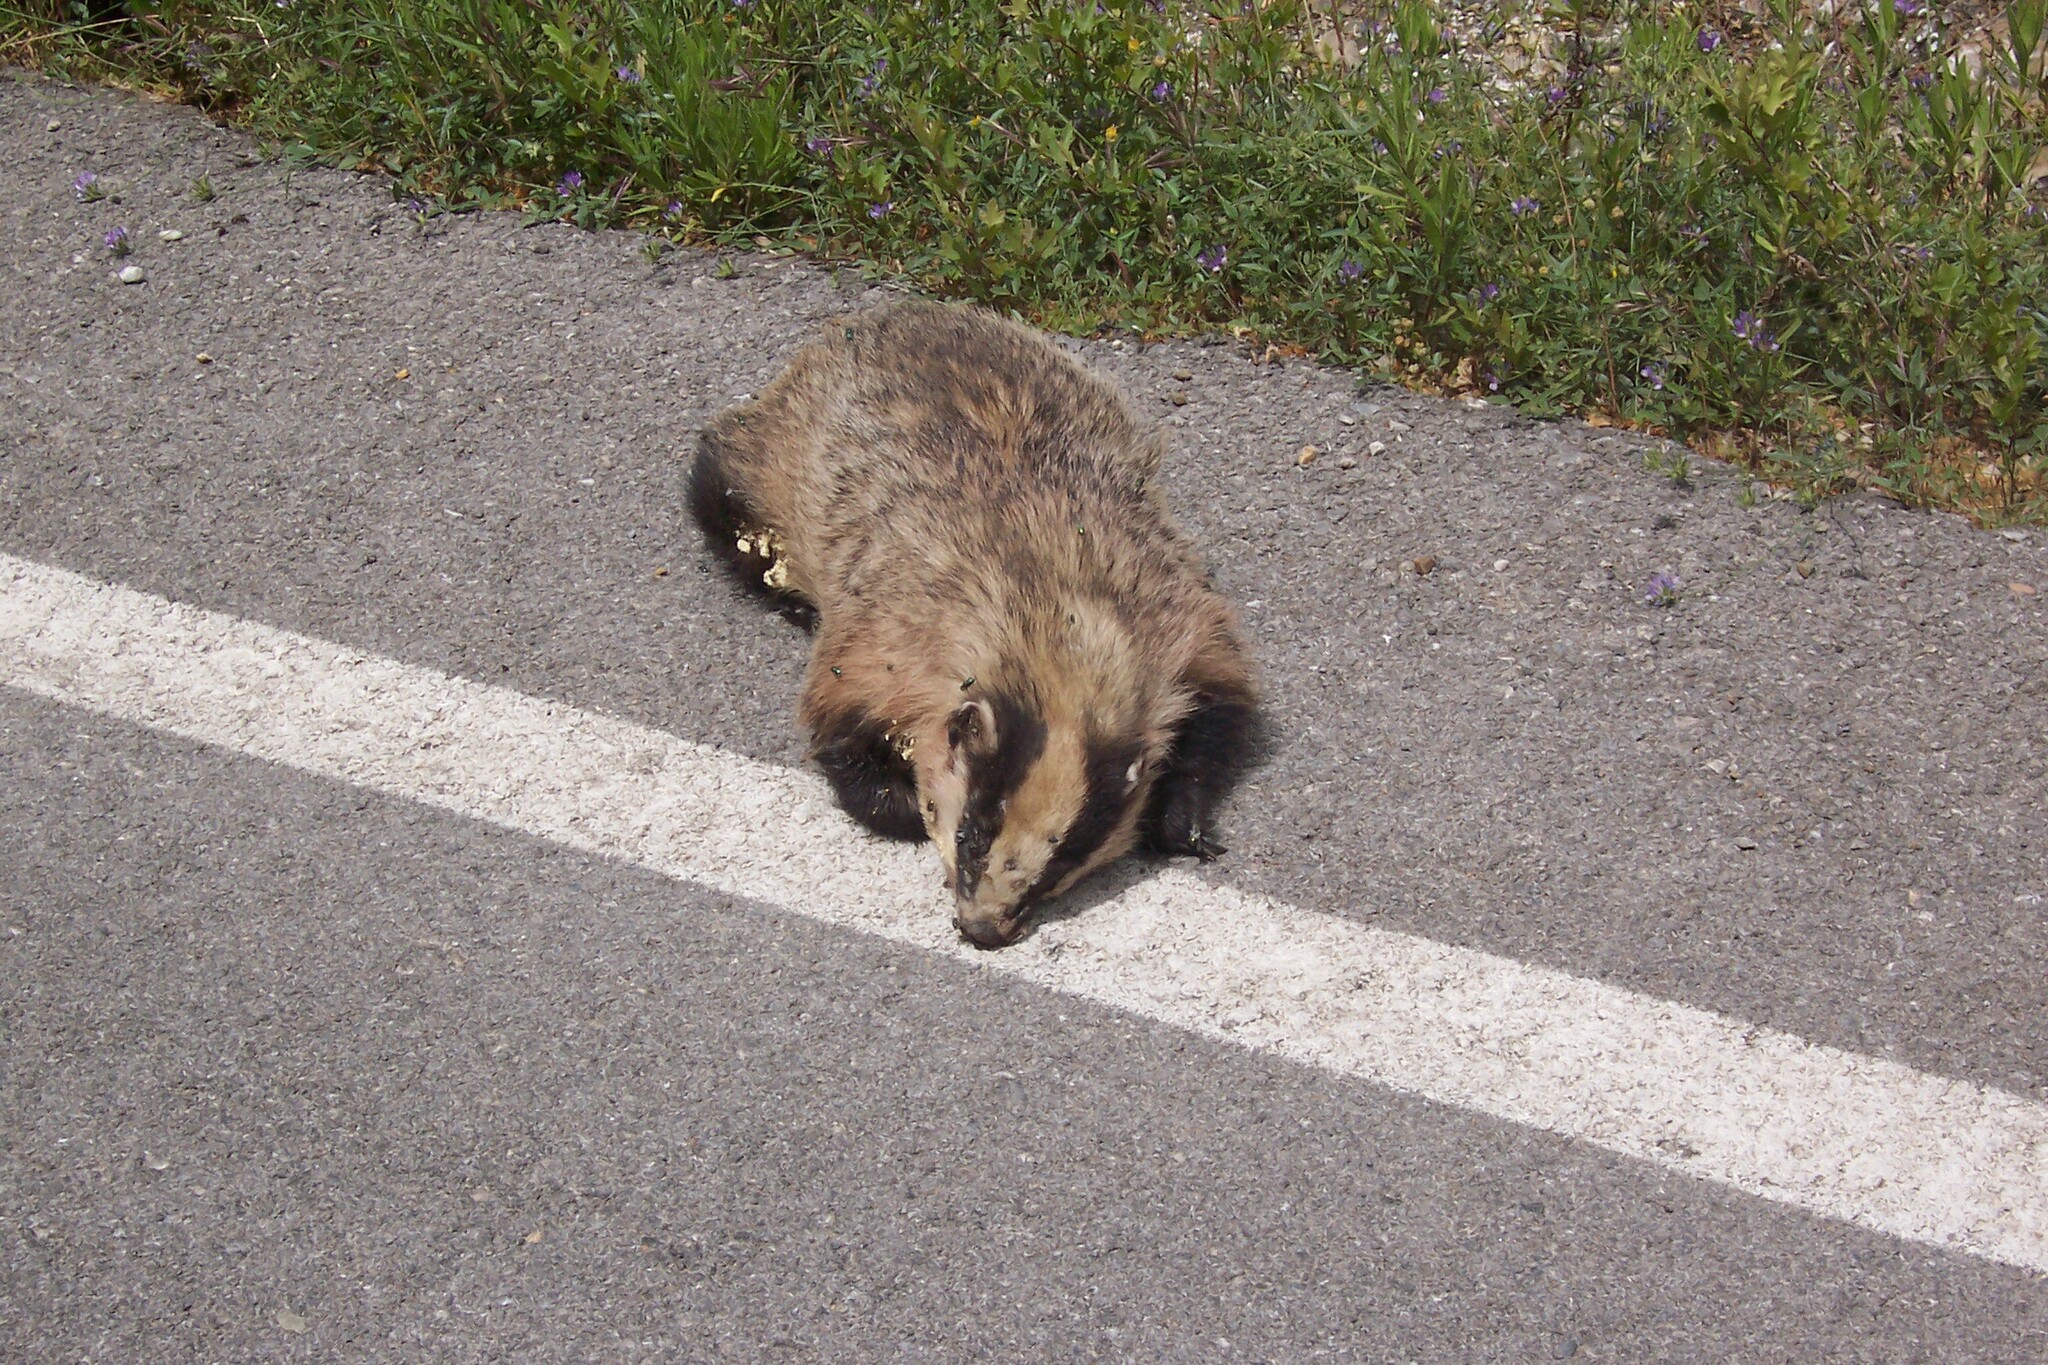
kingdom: Animalia
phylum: Chordata
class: Mammalia
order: Carnivora
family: Mustelidae
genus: Meles
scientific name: Meles canescens
